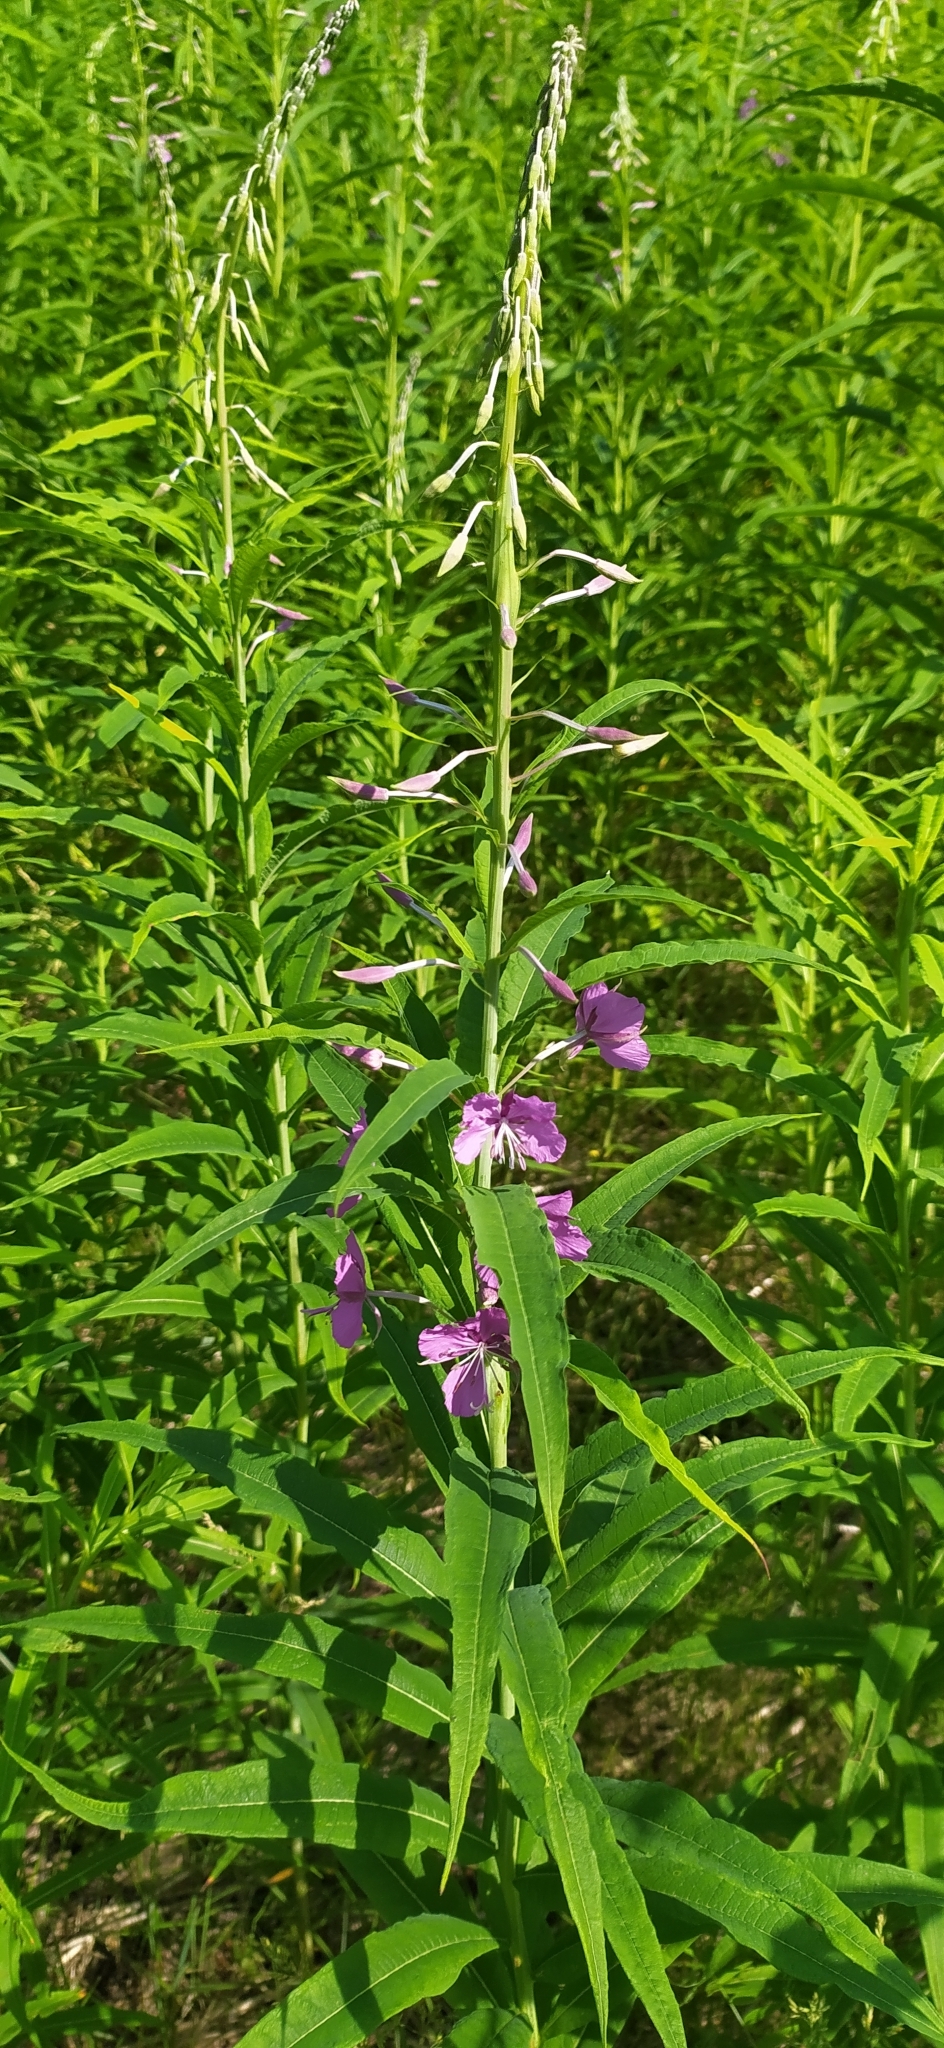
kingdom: Plantae
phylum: Tracheophyta
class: Magnoliopsida
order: Myrtales
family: Onagraceae
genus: Chamaenerion
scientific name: Chamaenerion angustifolium
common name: Fireweed
